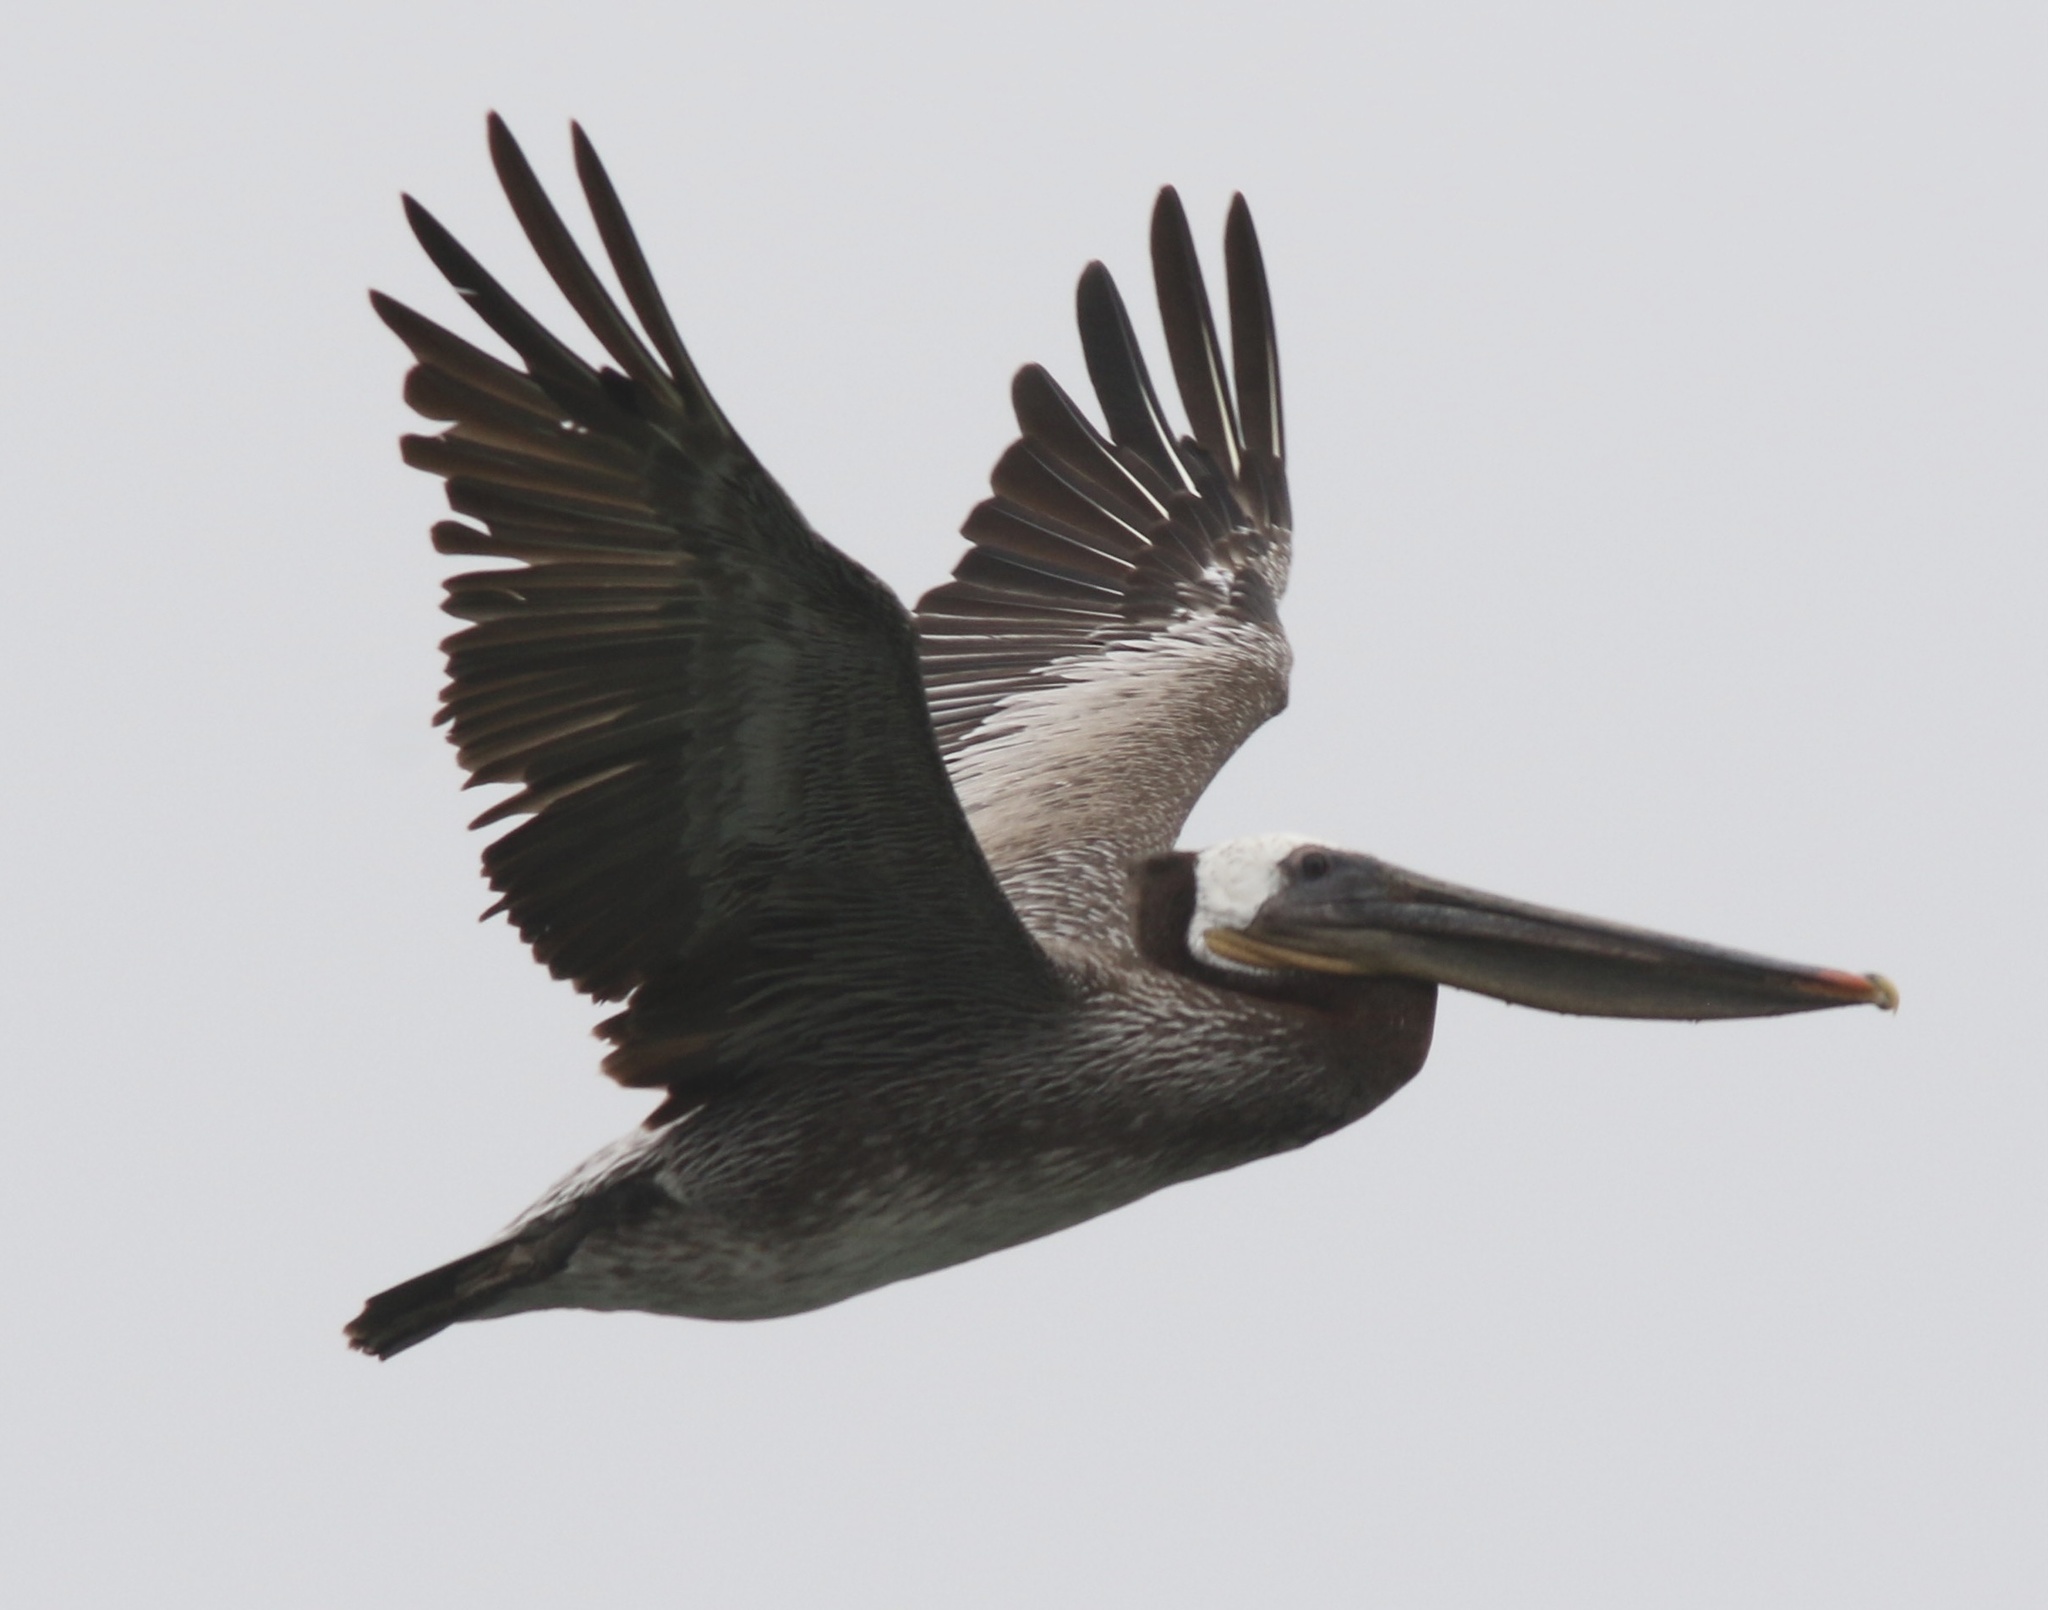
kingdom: Animalia
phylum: Chordata
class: Aves
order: Pelecaniformes
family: Pelecanidae
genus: Pelecanus
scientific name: Pelecanus occidentalis
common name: Brown pelican
